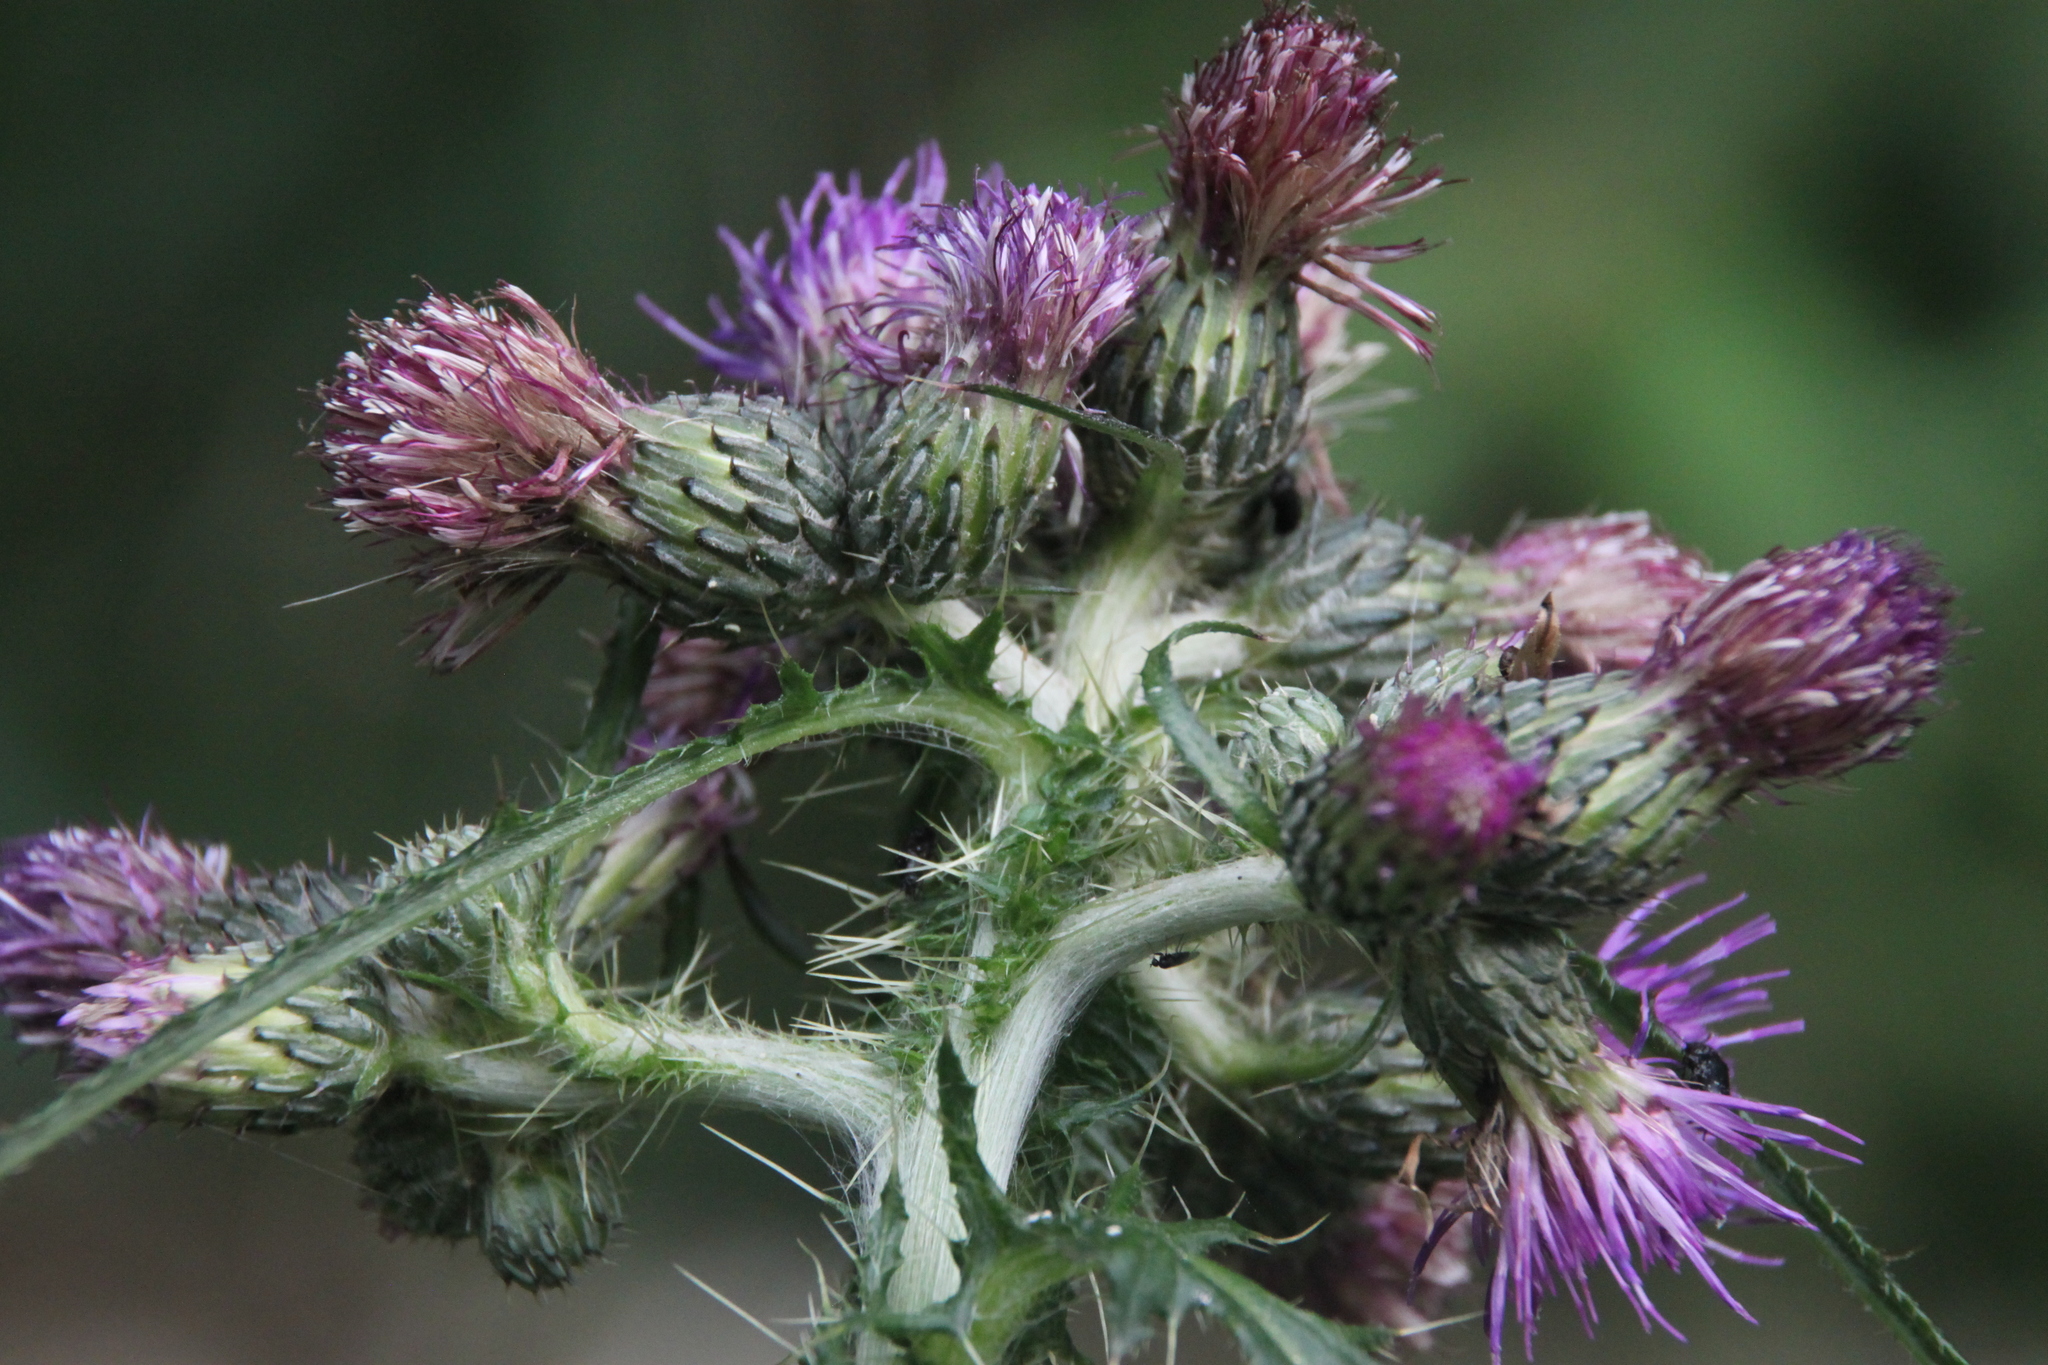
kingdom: Plantae
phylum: Tracheophyta
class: Magnoliopsida
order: Asterales
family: Asteraceae
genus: Cirsium
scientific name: Cirsium palustre
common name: Marsh thistle
